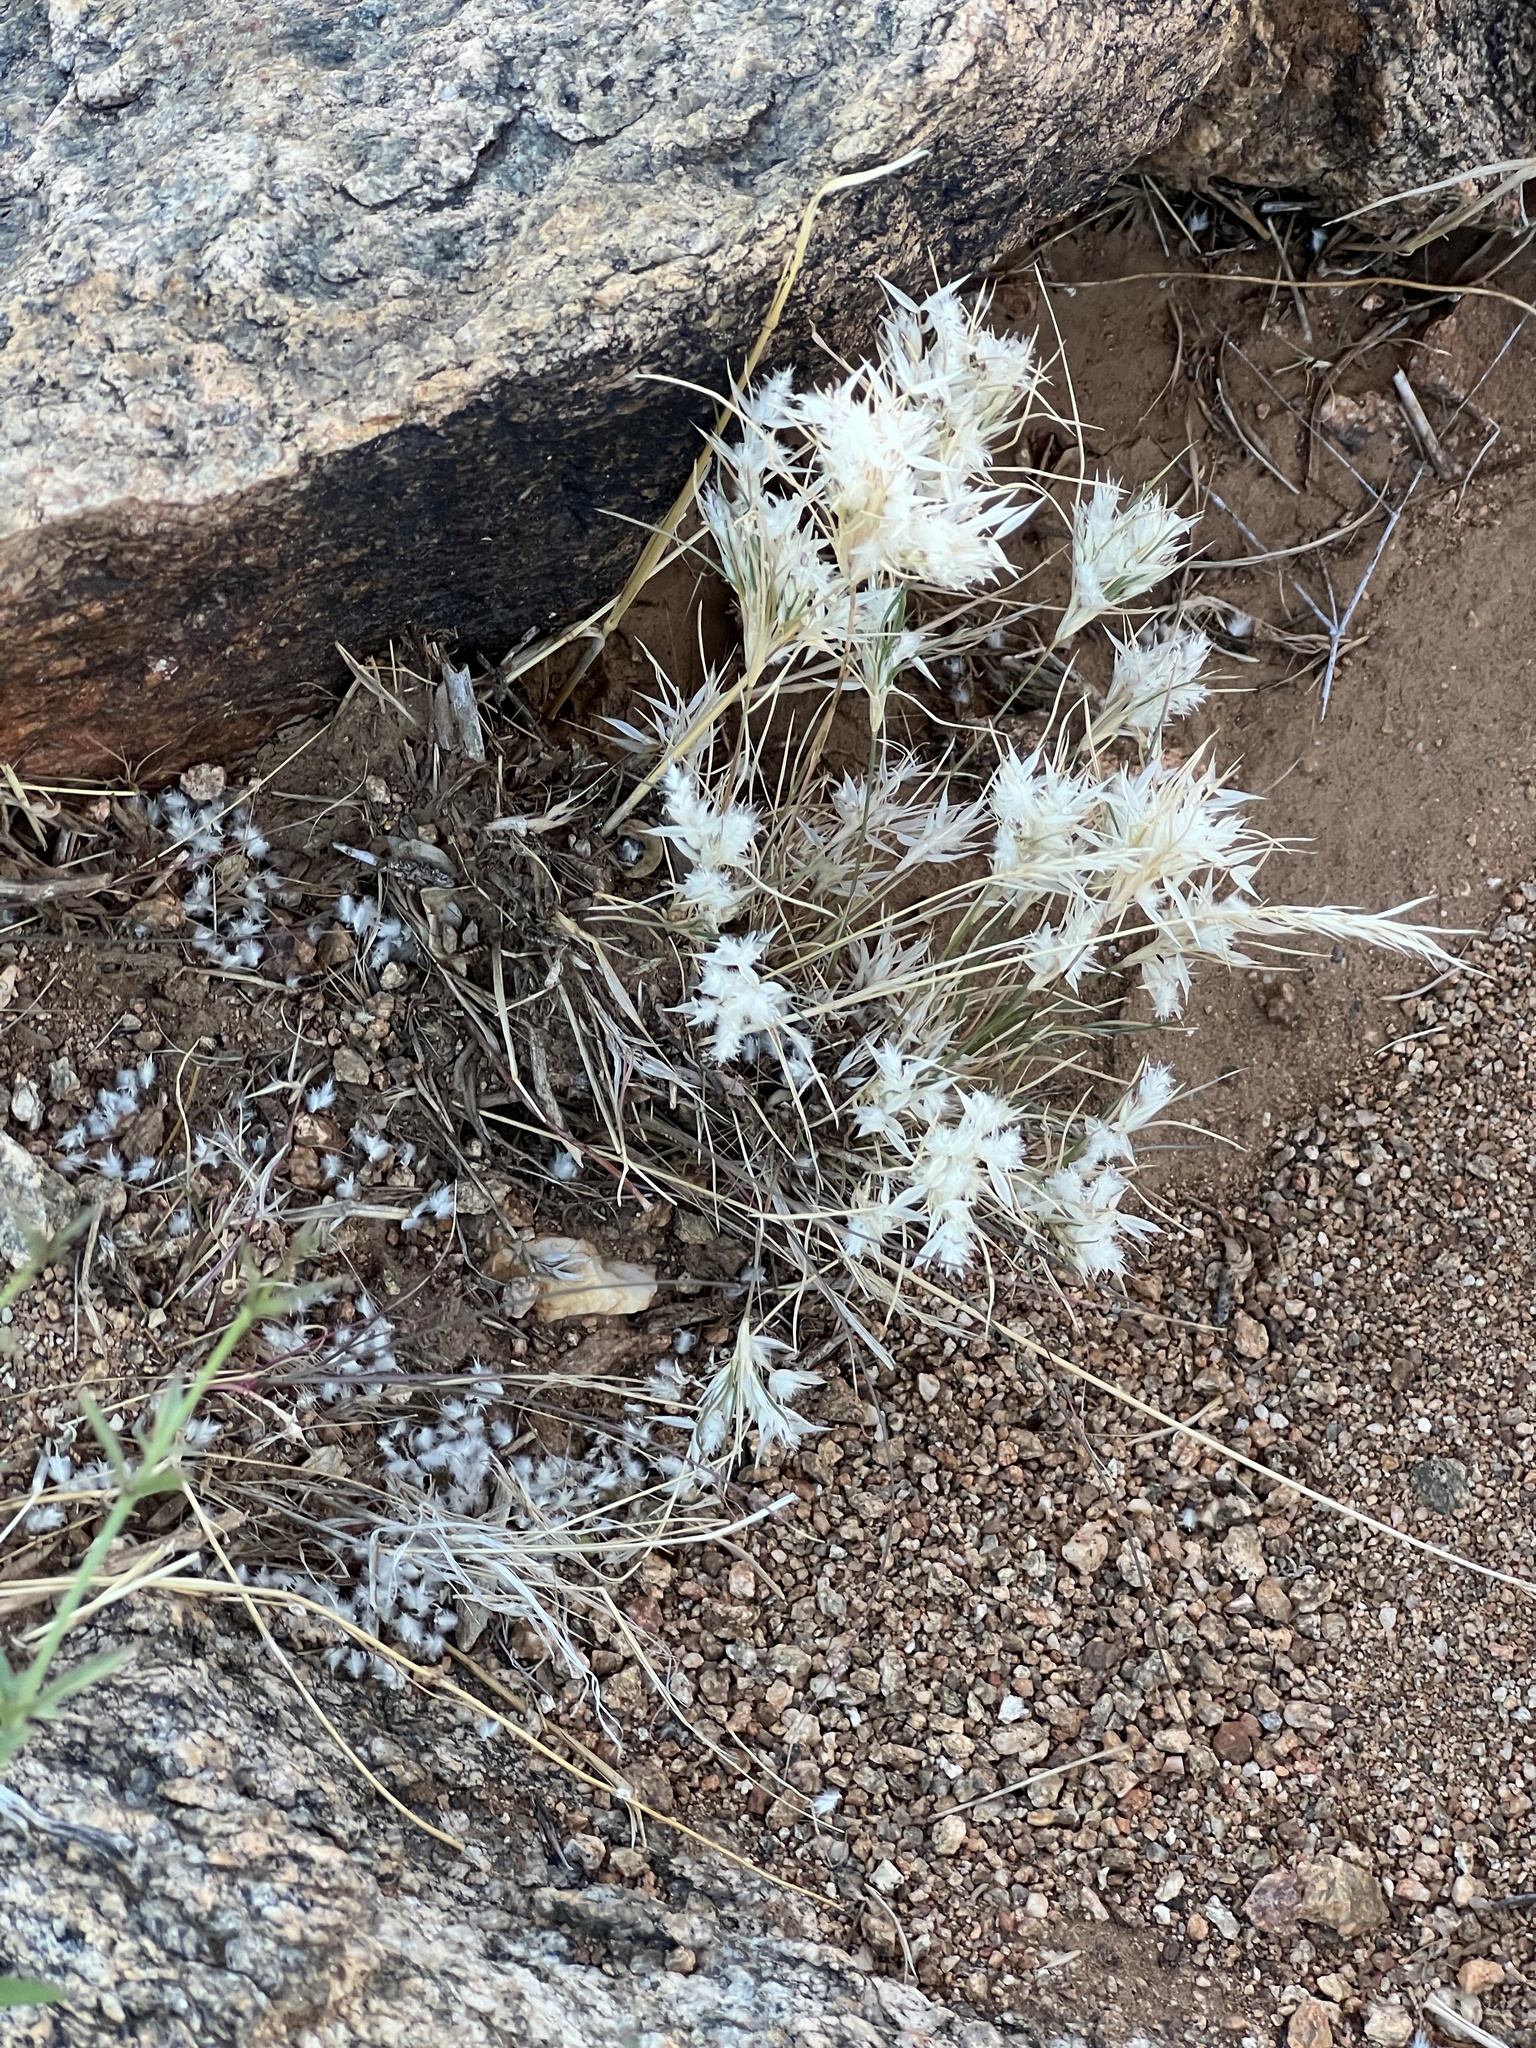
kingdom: Plantae
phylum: Tracheophyta
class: Liliopsida
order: Poales
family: Poaceae
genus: Dasyochloa
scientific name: Dasyochloa pulchella
